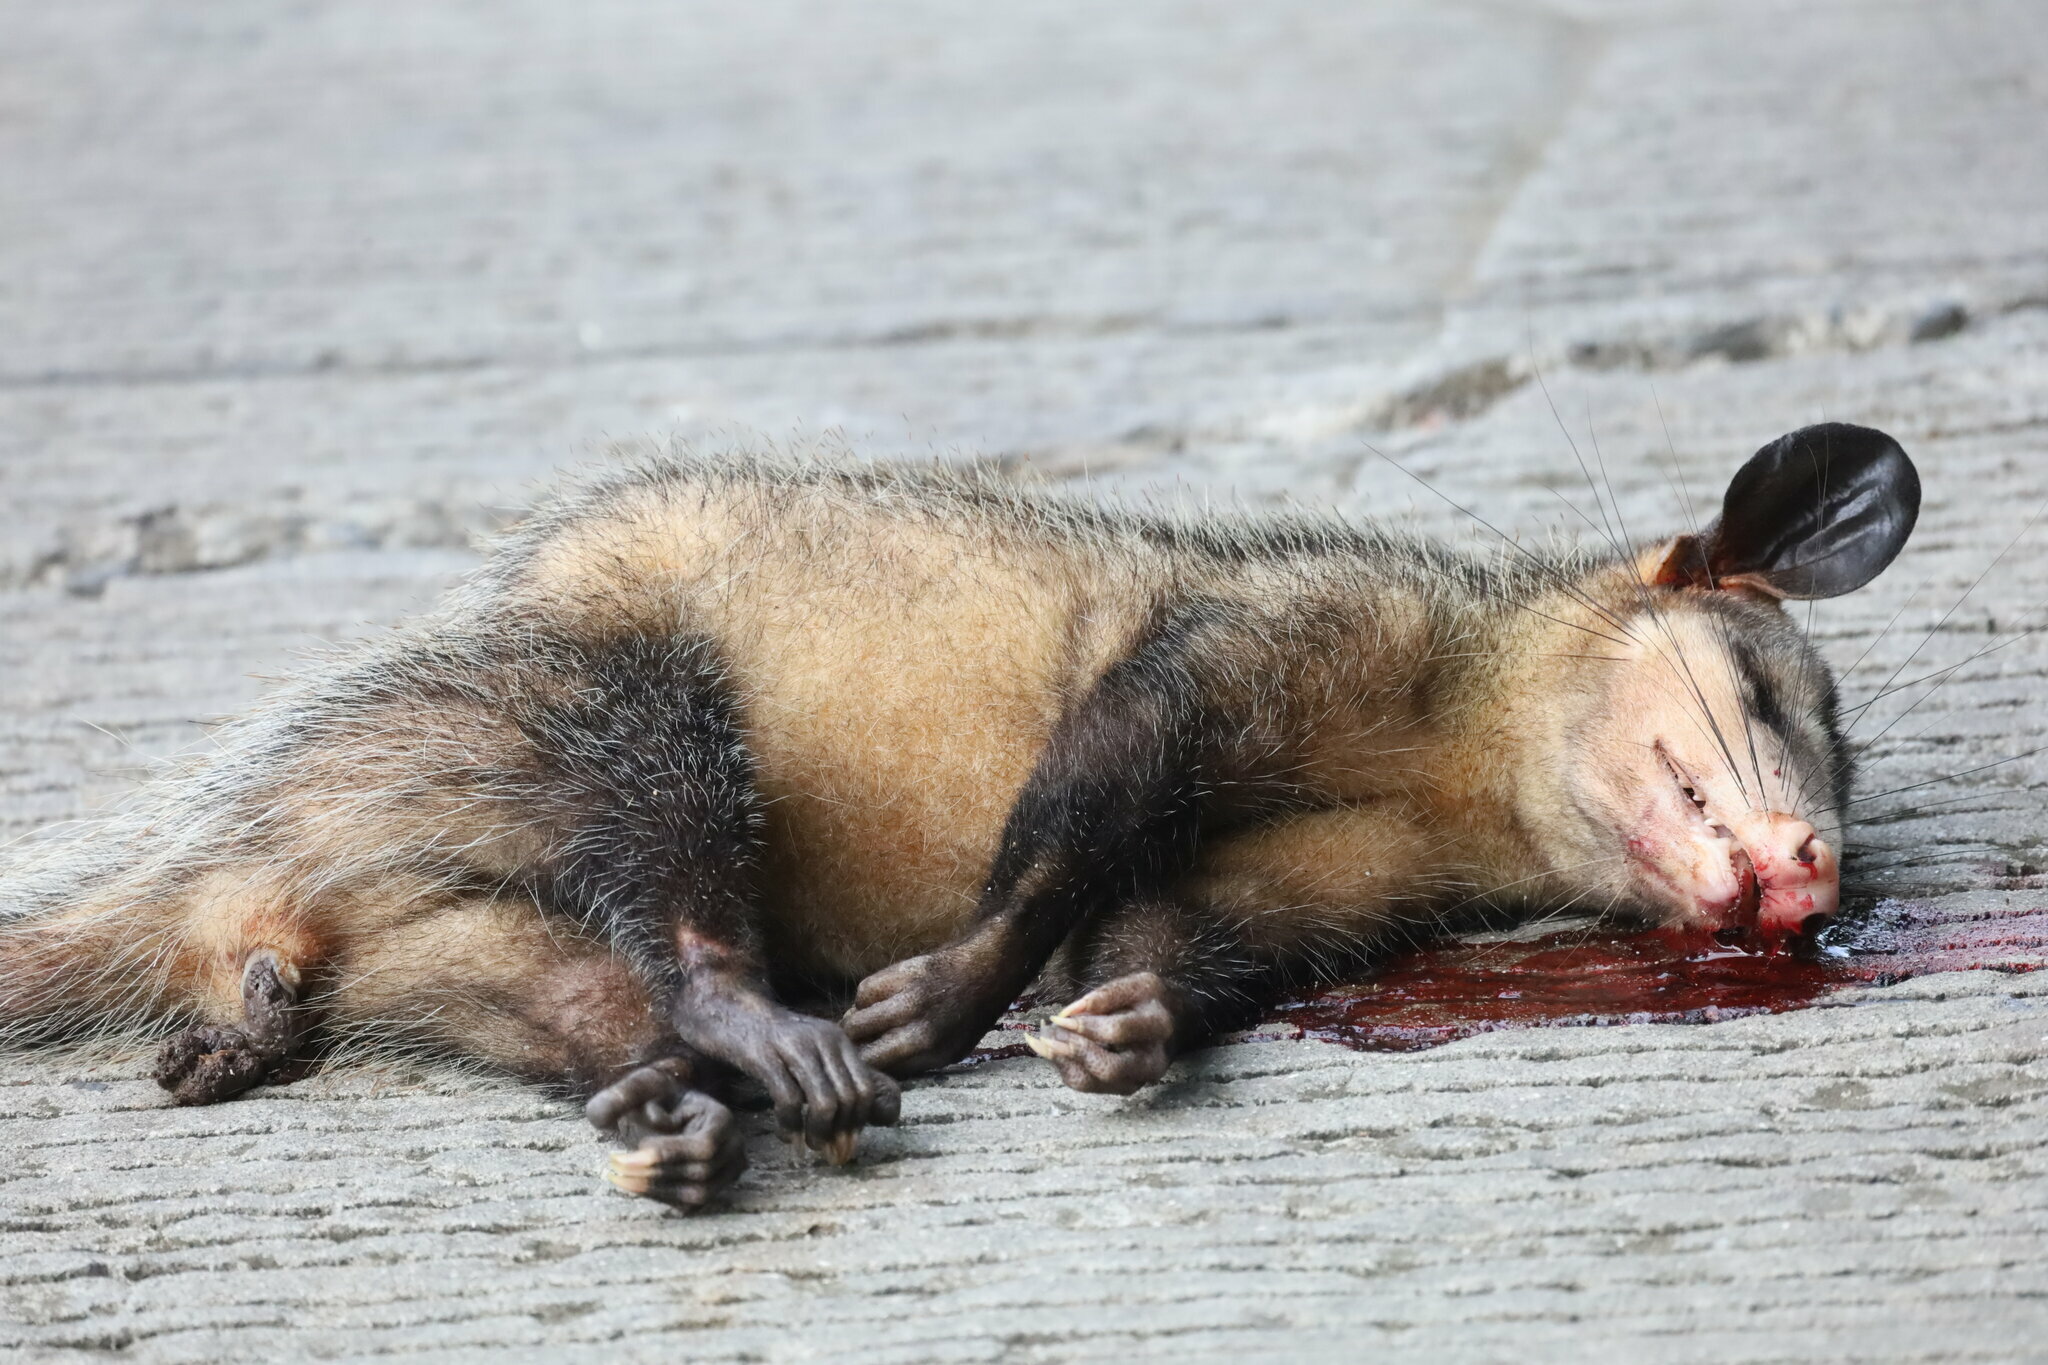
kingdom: Animalia
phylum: Chordata
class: Mammalia
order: Didelphimorphia
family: Didelphidae
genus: Didelphis
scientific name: Didelphis marsupialis
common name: Common opossum
